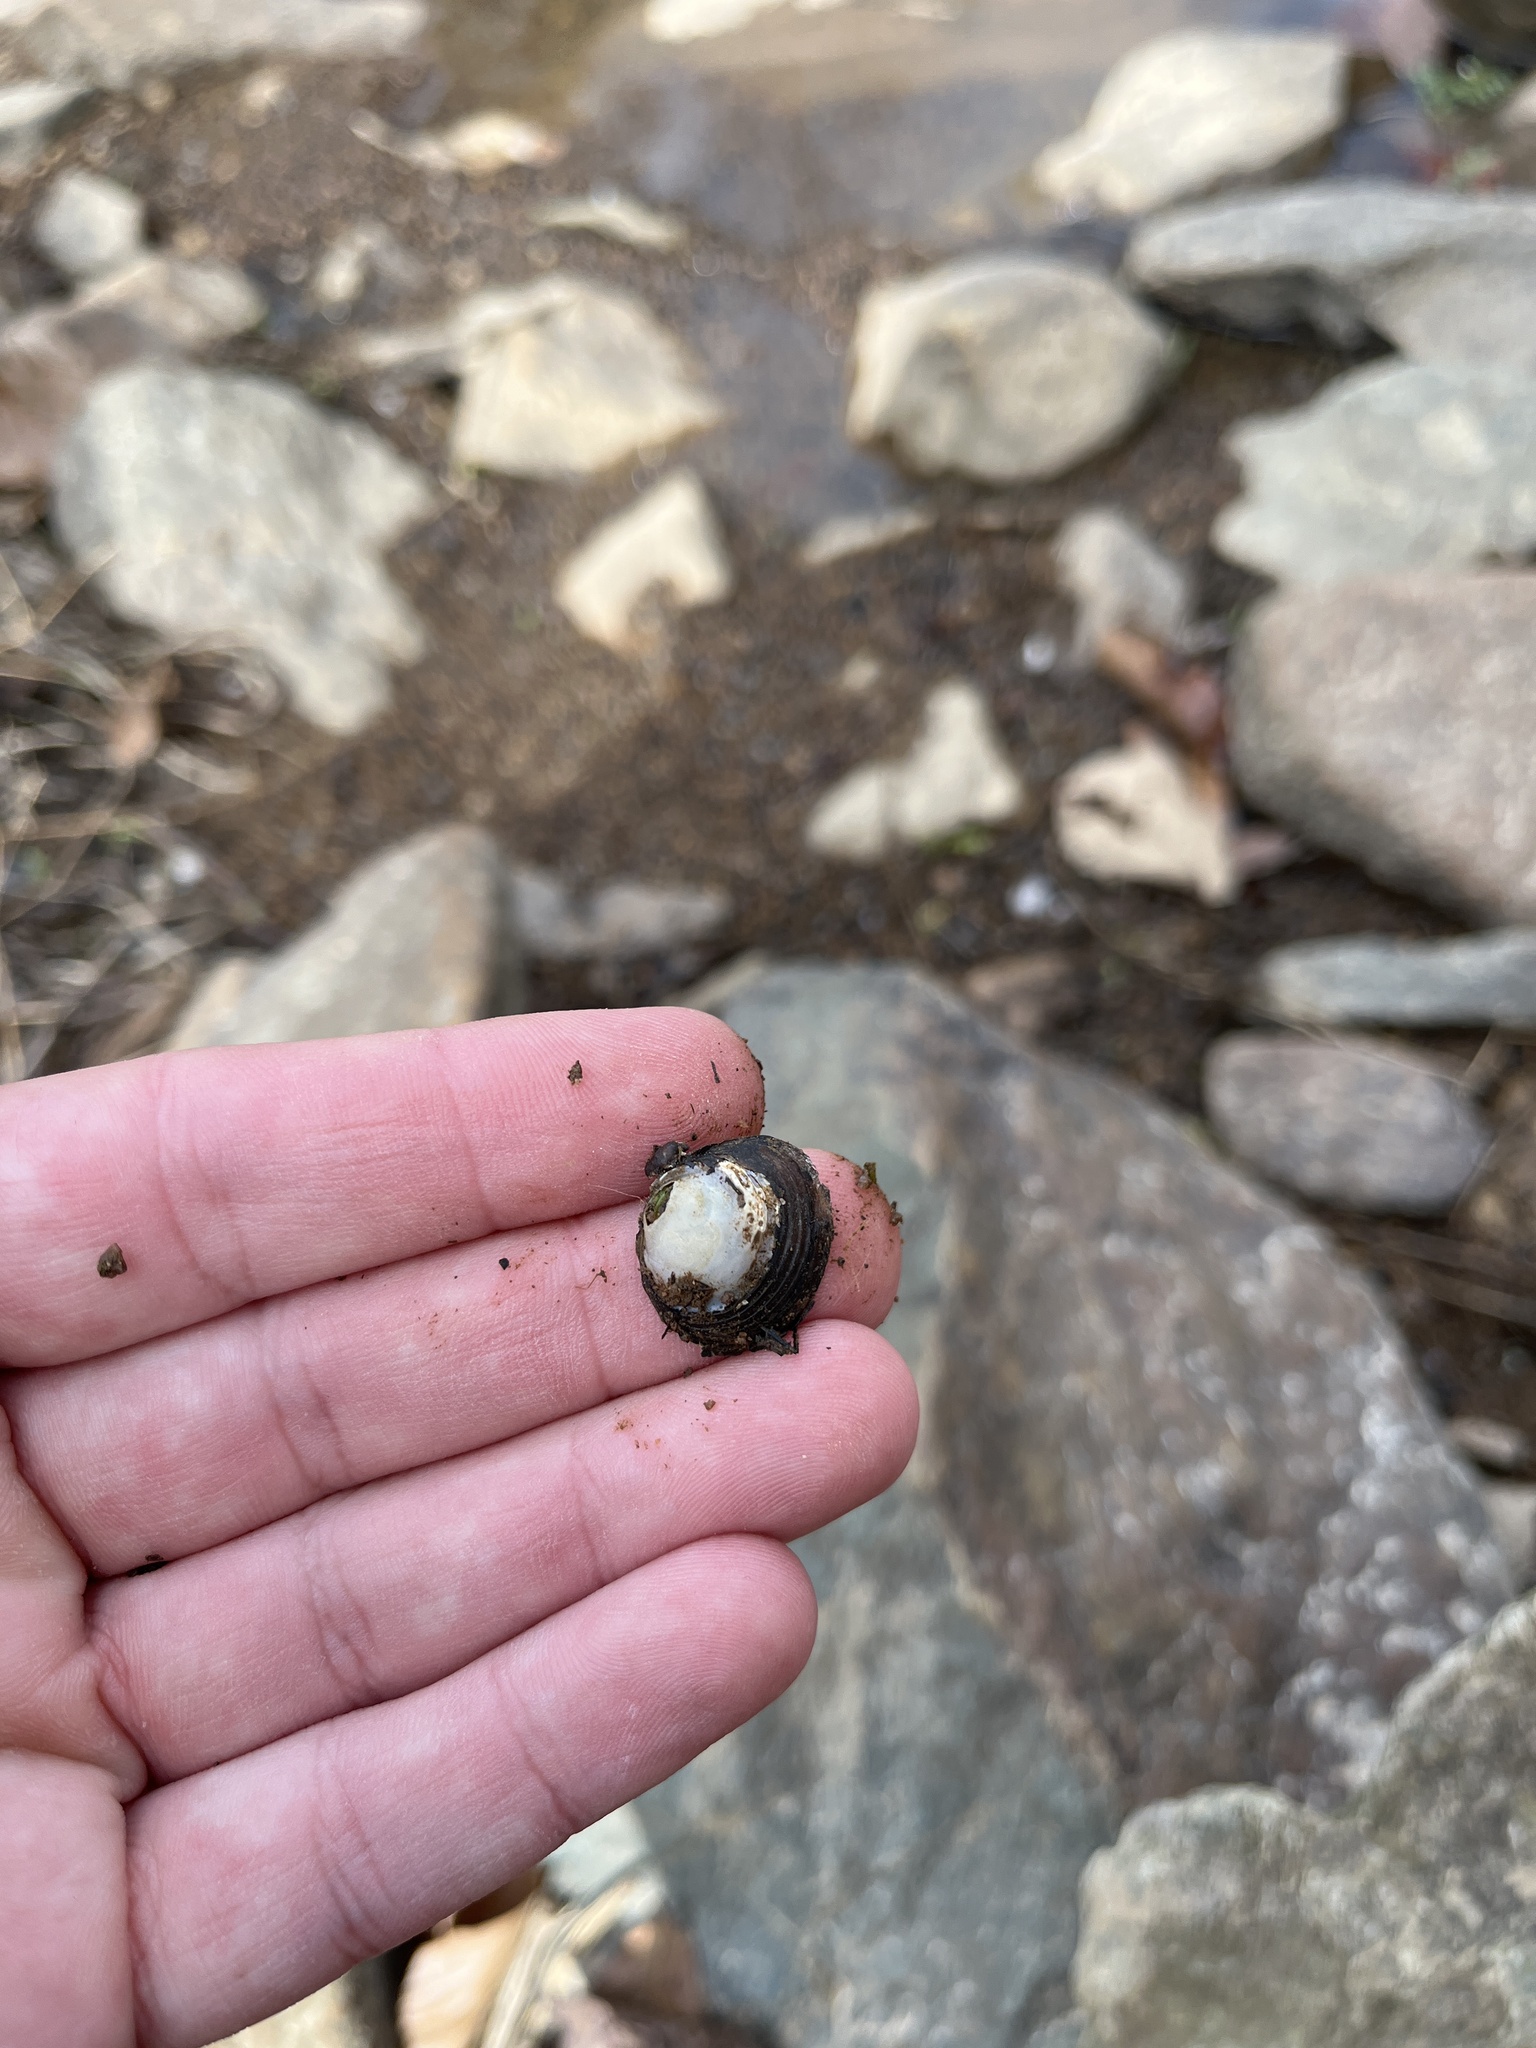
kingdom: Animalia
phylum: Mollusca
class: Bivalvia
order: Venerida
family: Cyrenidae
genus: Corbicula
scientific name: Corbicula fluminea
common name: Asian clam
